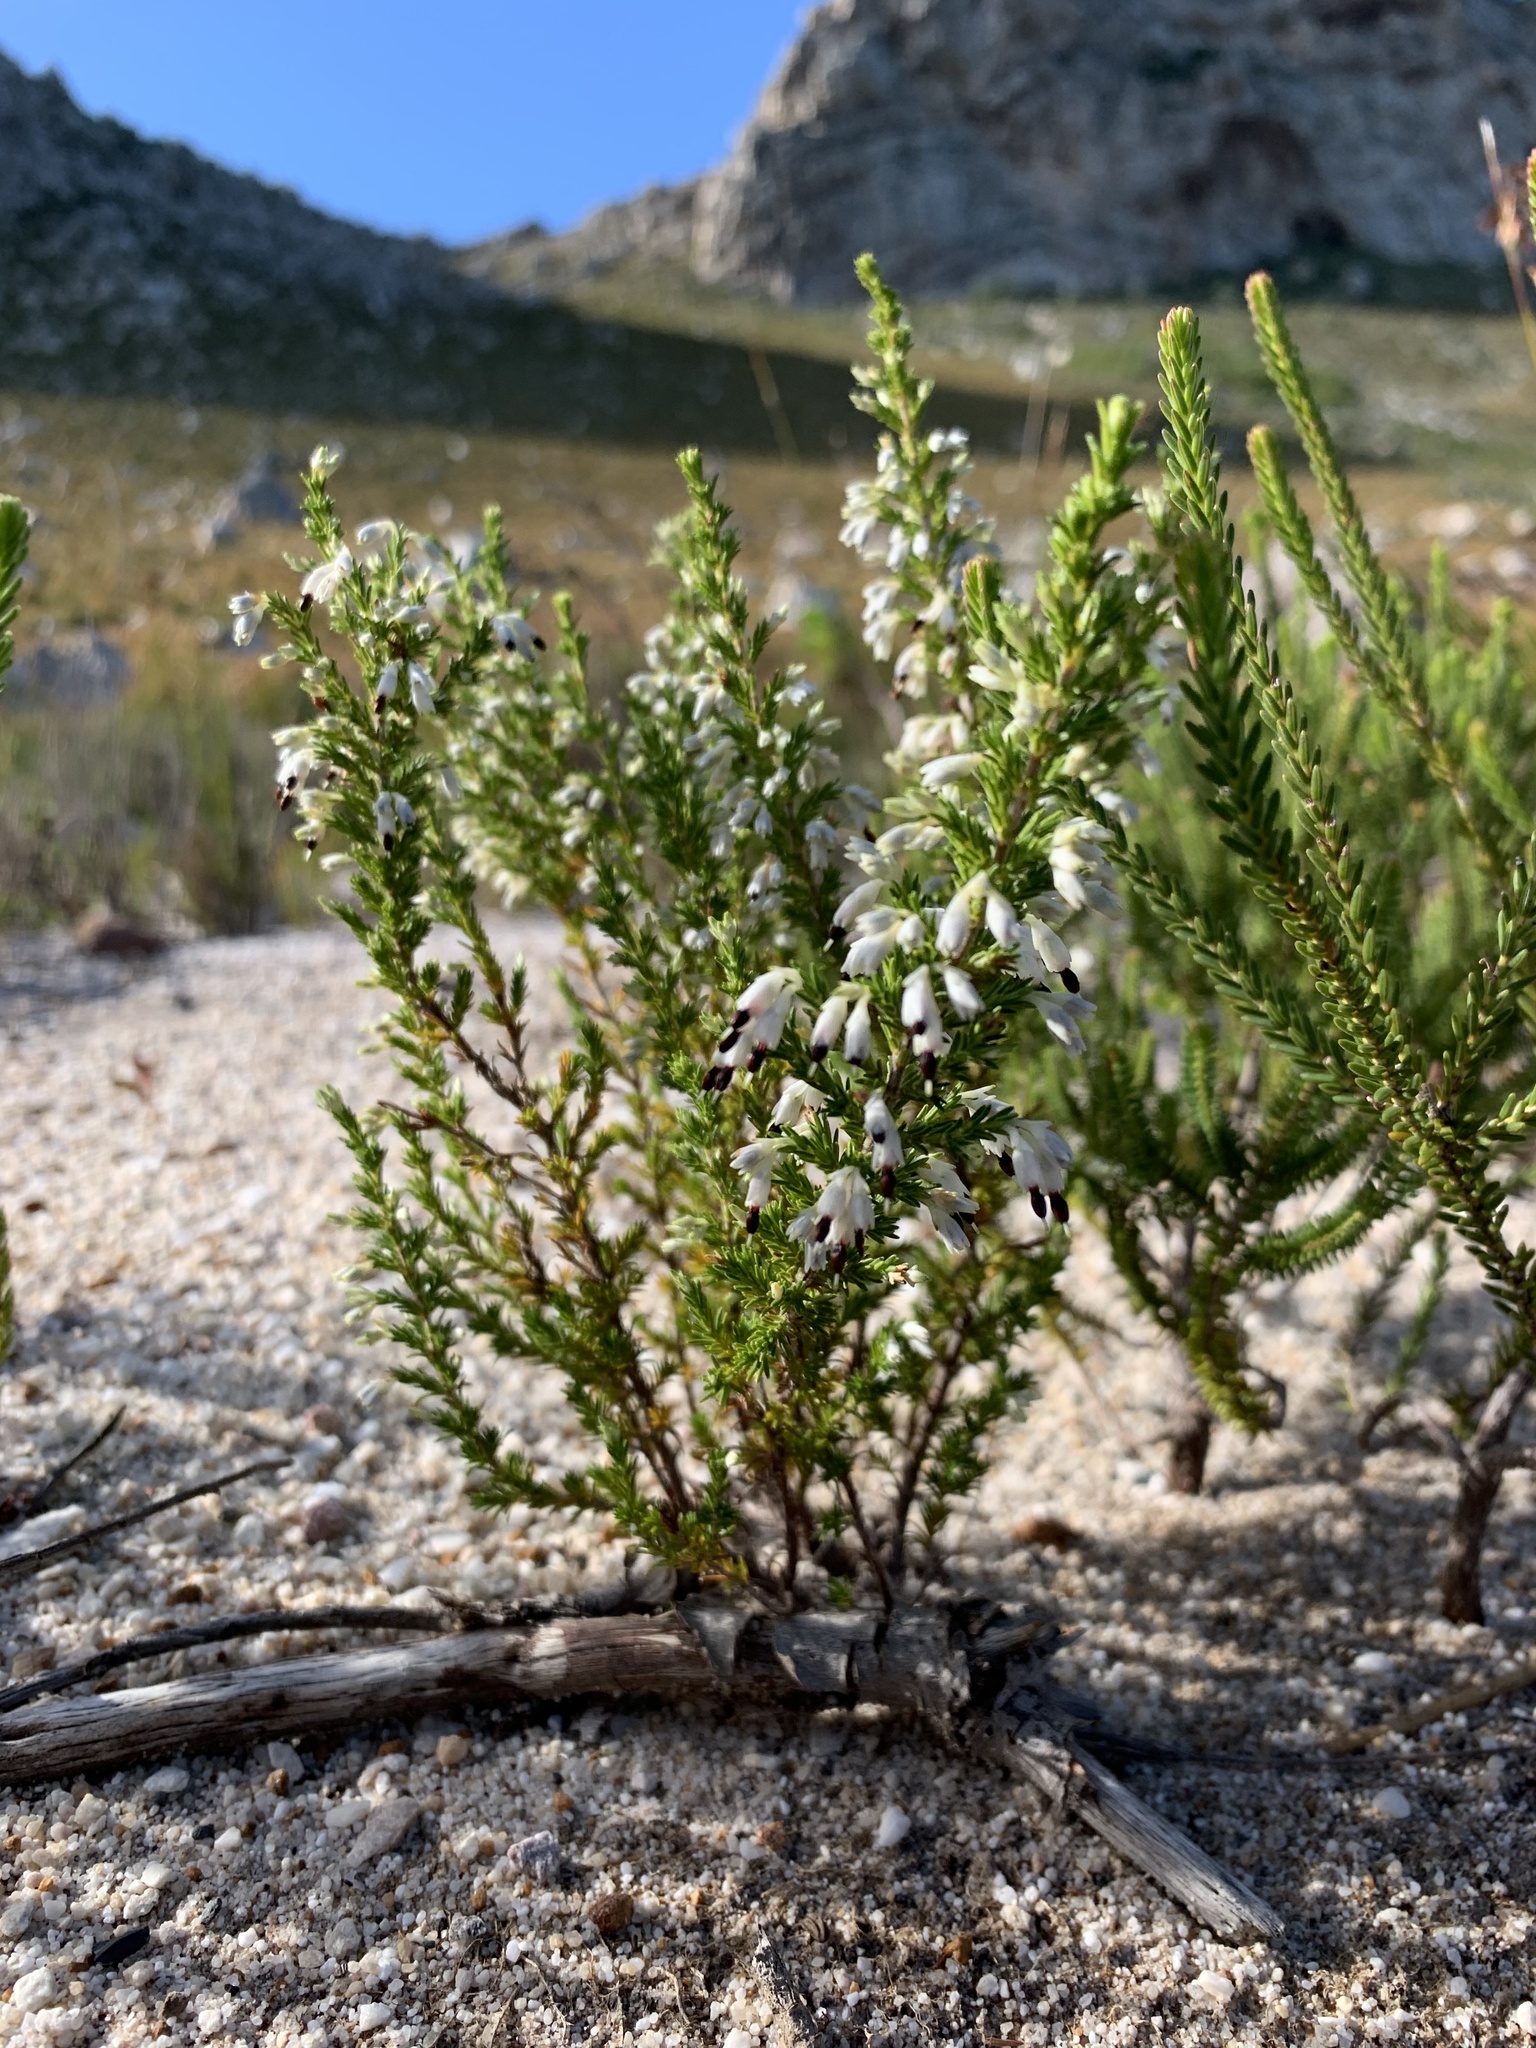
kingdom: Plantae
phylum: Tracheophyta
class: Magnoliopsida
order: Ericales
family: Ericaceae
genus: Erica
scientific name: Erica imbricata
